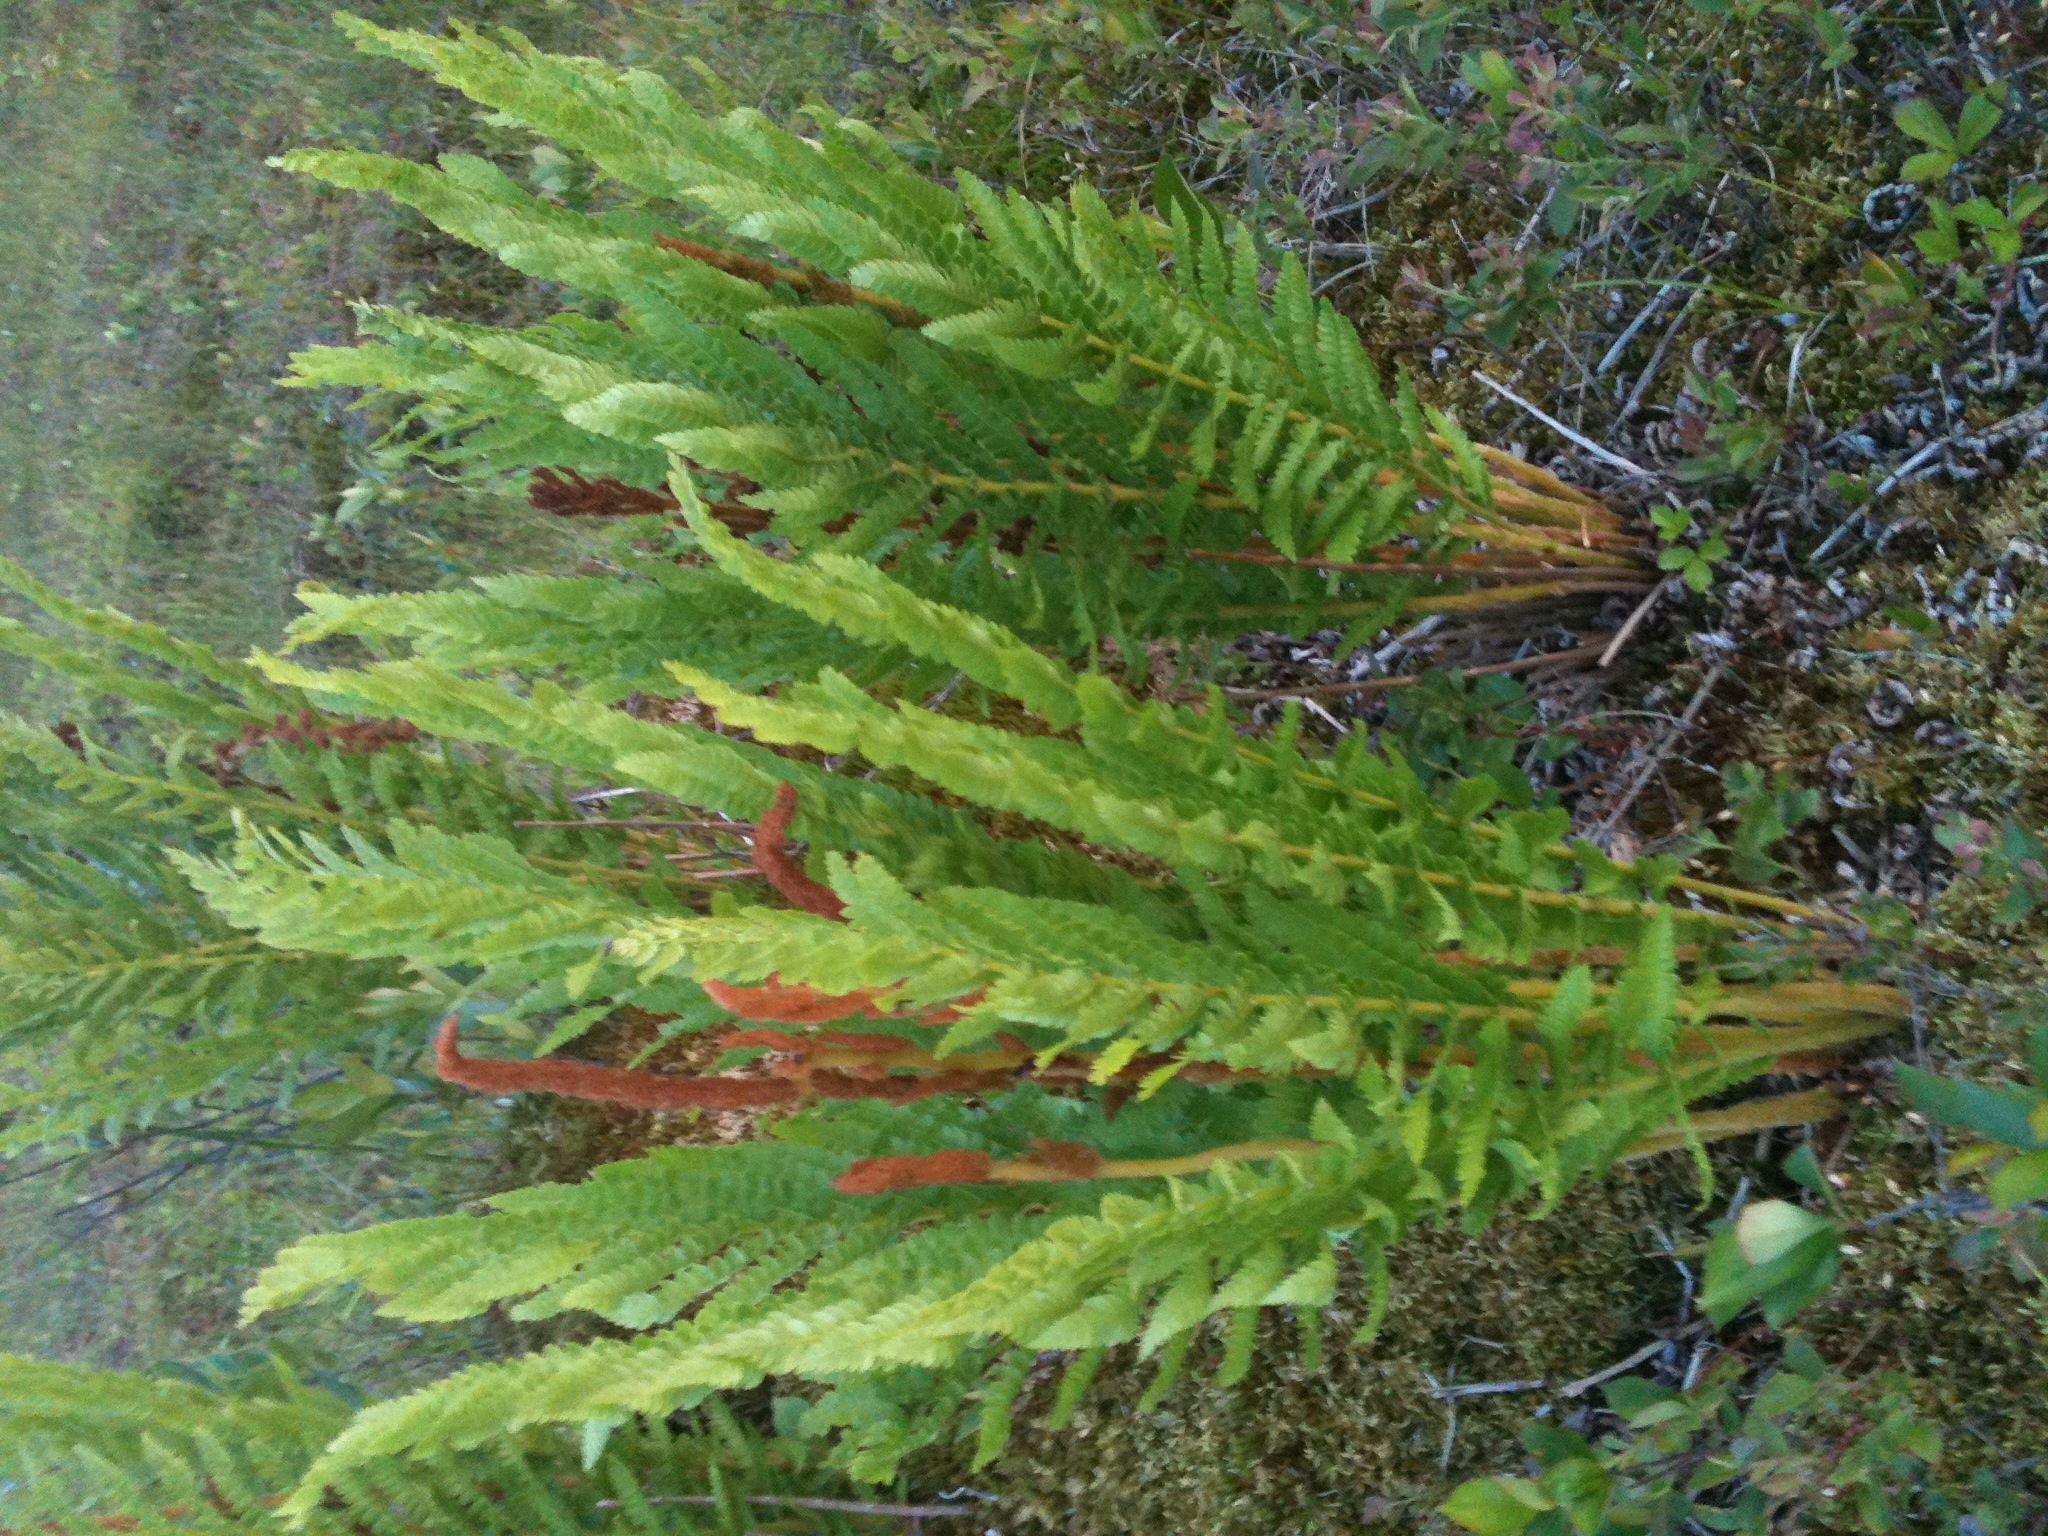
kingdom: Plantae
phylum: Tracheophyta
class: Polypodiopsida
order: Osmundales
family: Osmundaceae
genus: Osmundastrum
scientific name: Osmundastrum cinnamomeum
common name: Cinnamon fern
